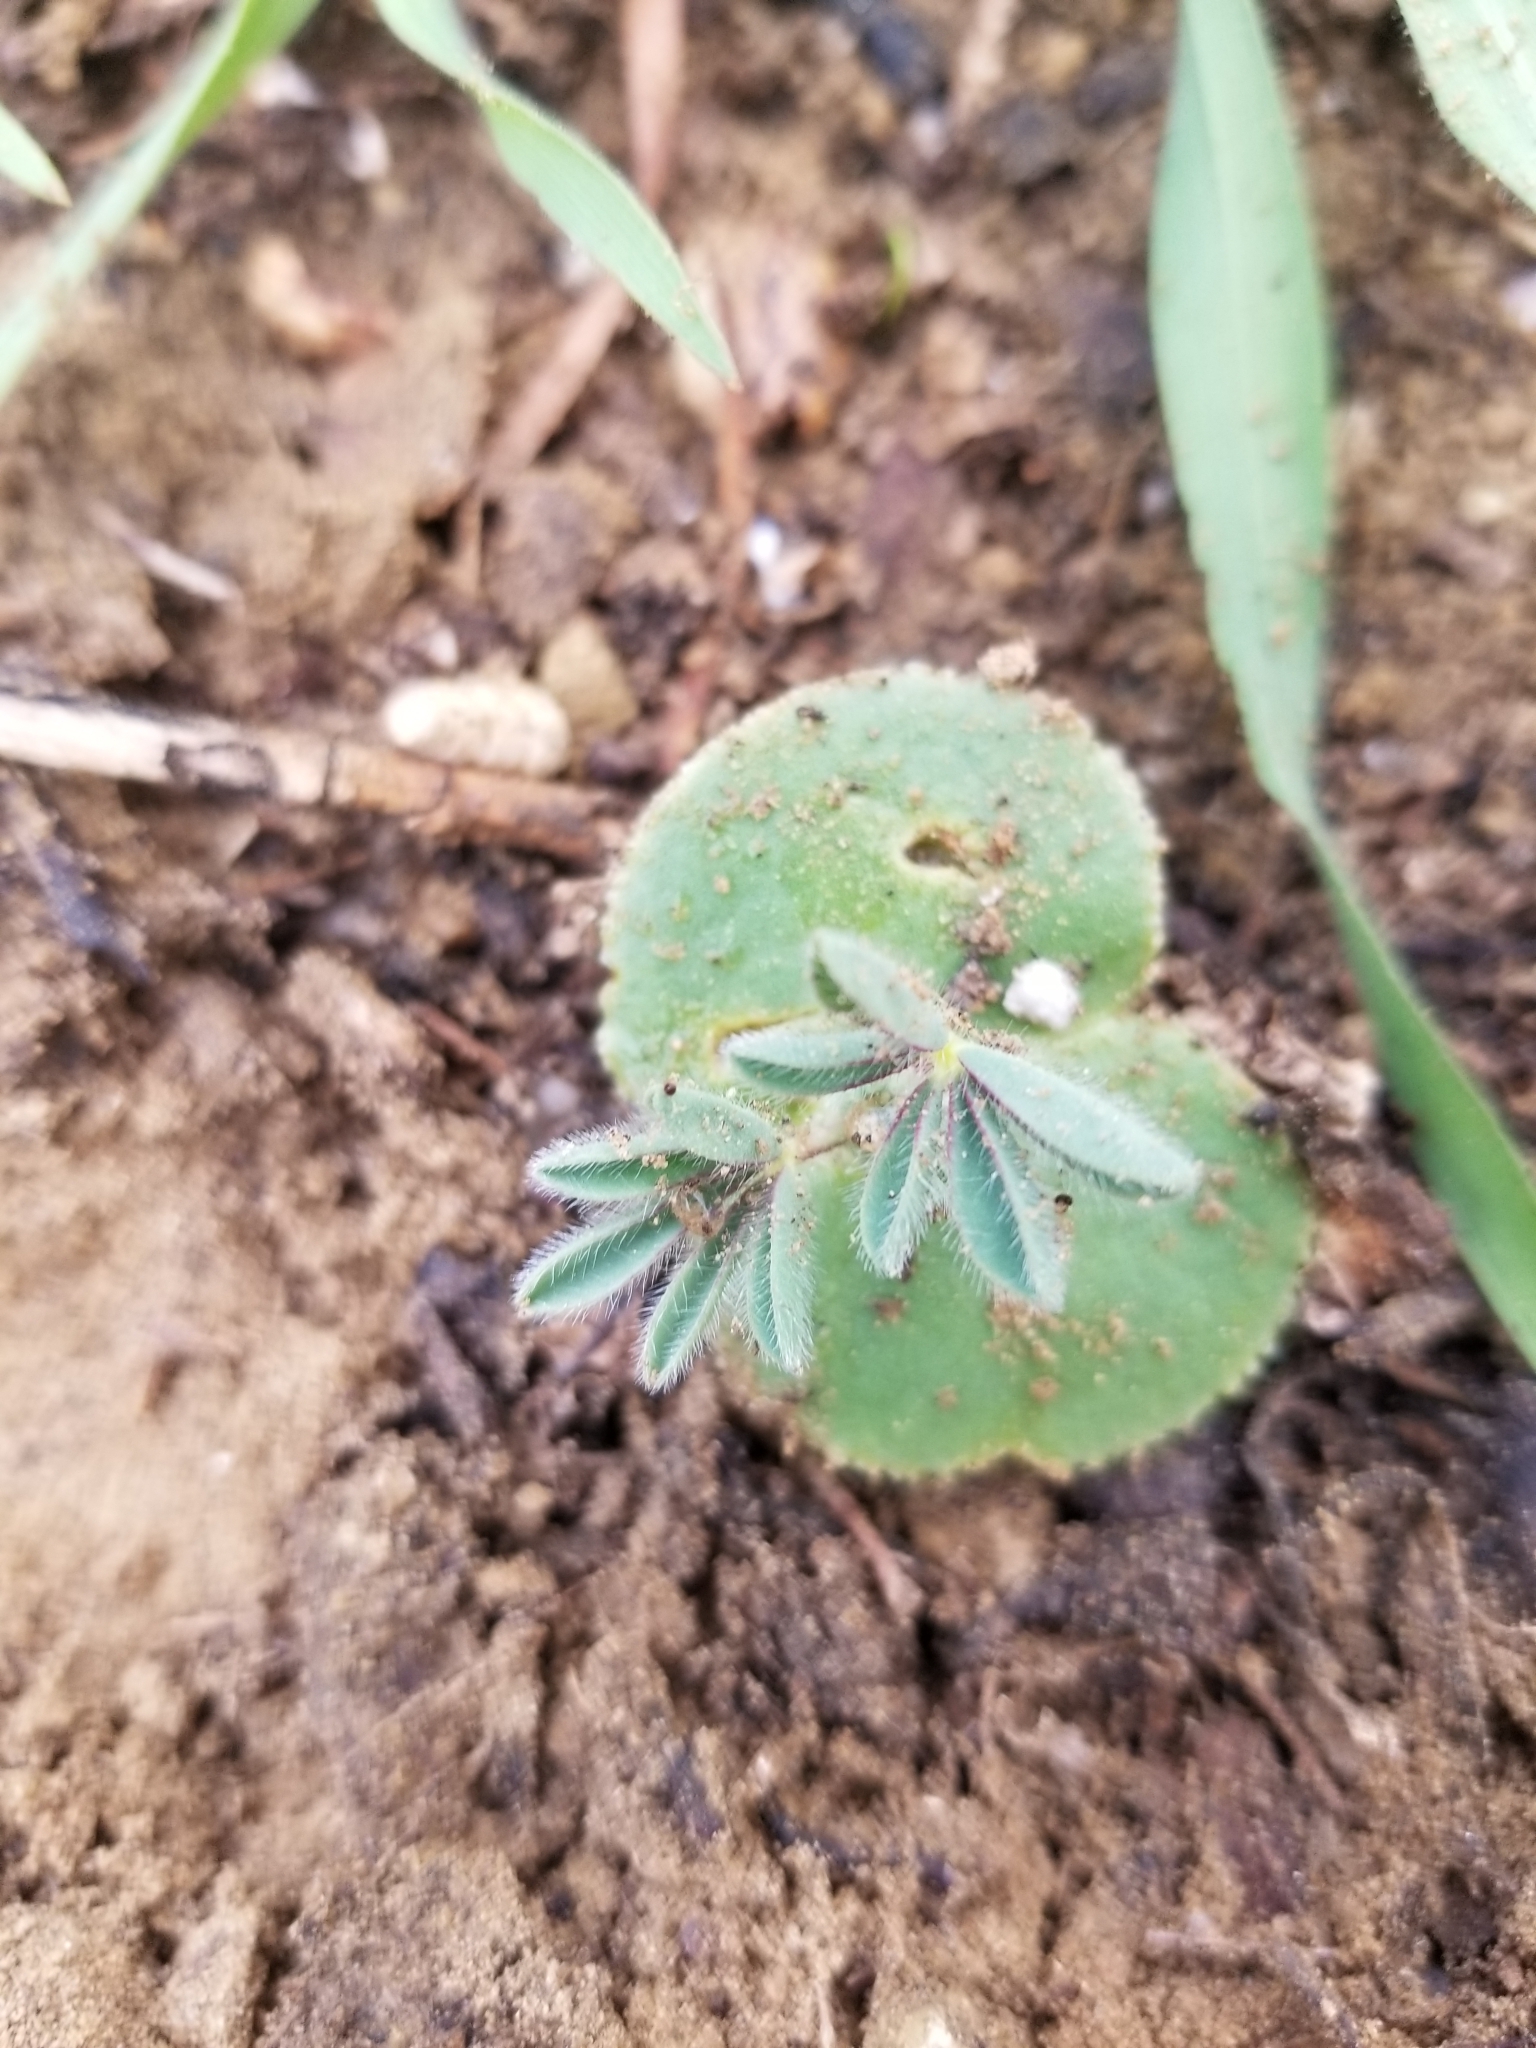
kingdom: Plantae
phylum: Tracheophyta
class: Magnoliopsida
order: Fabales
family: Fabaceae
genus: Lupinus
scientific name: Lupinus microcarpus
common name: Chick lupine
